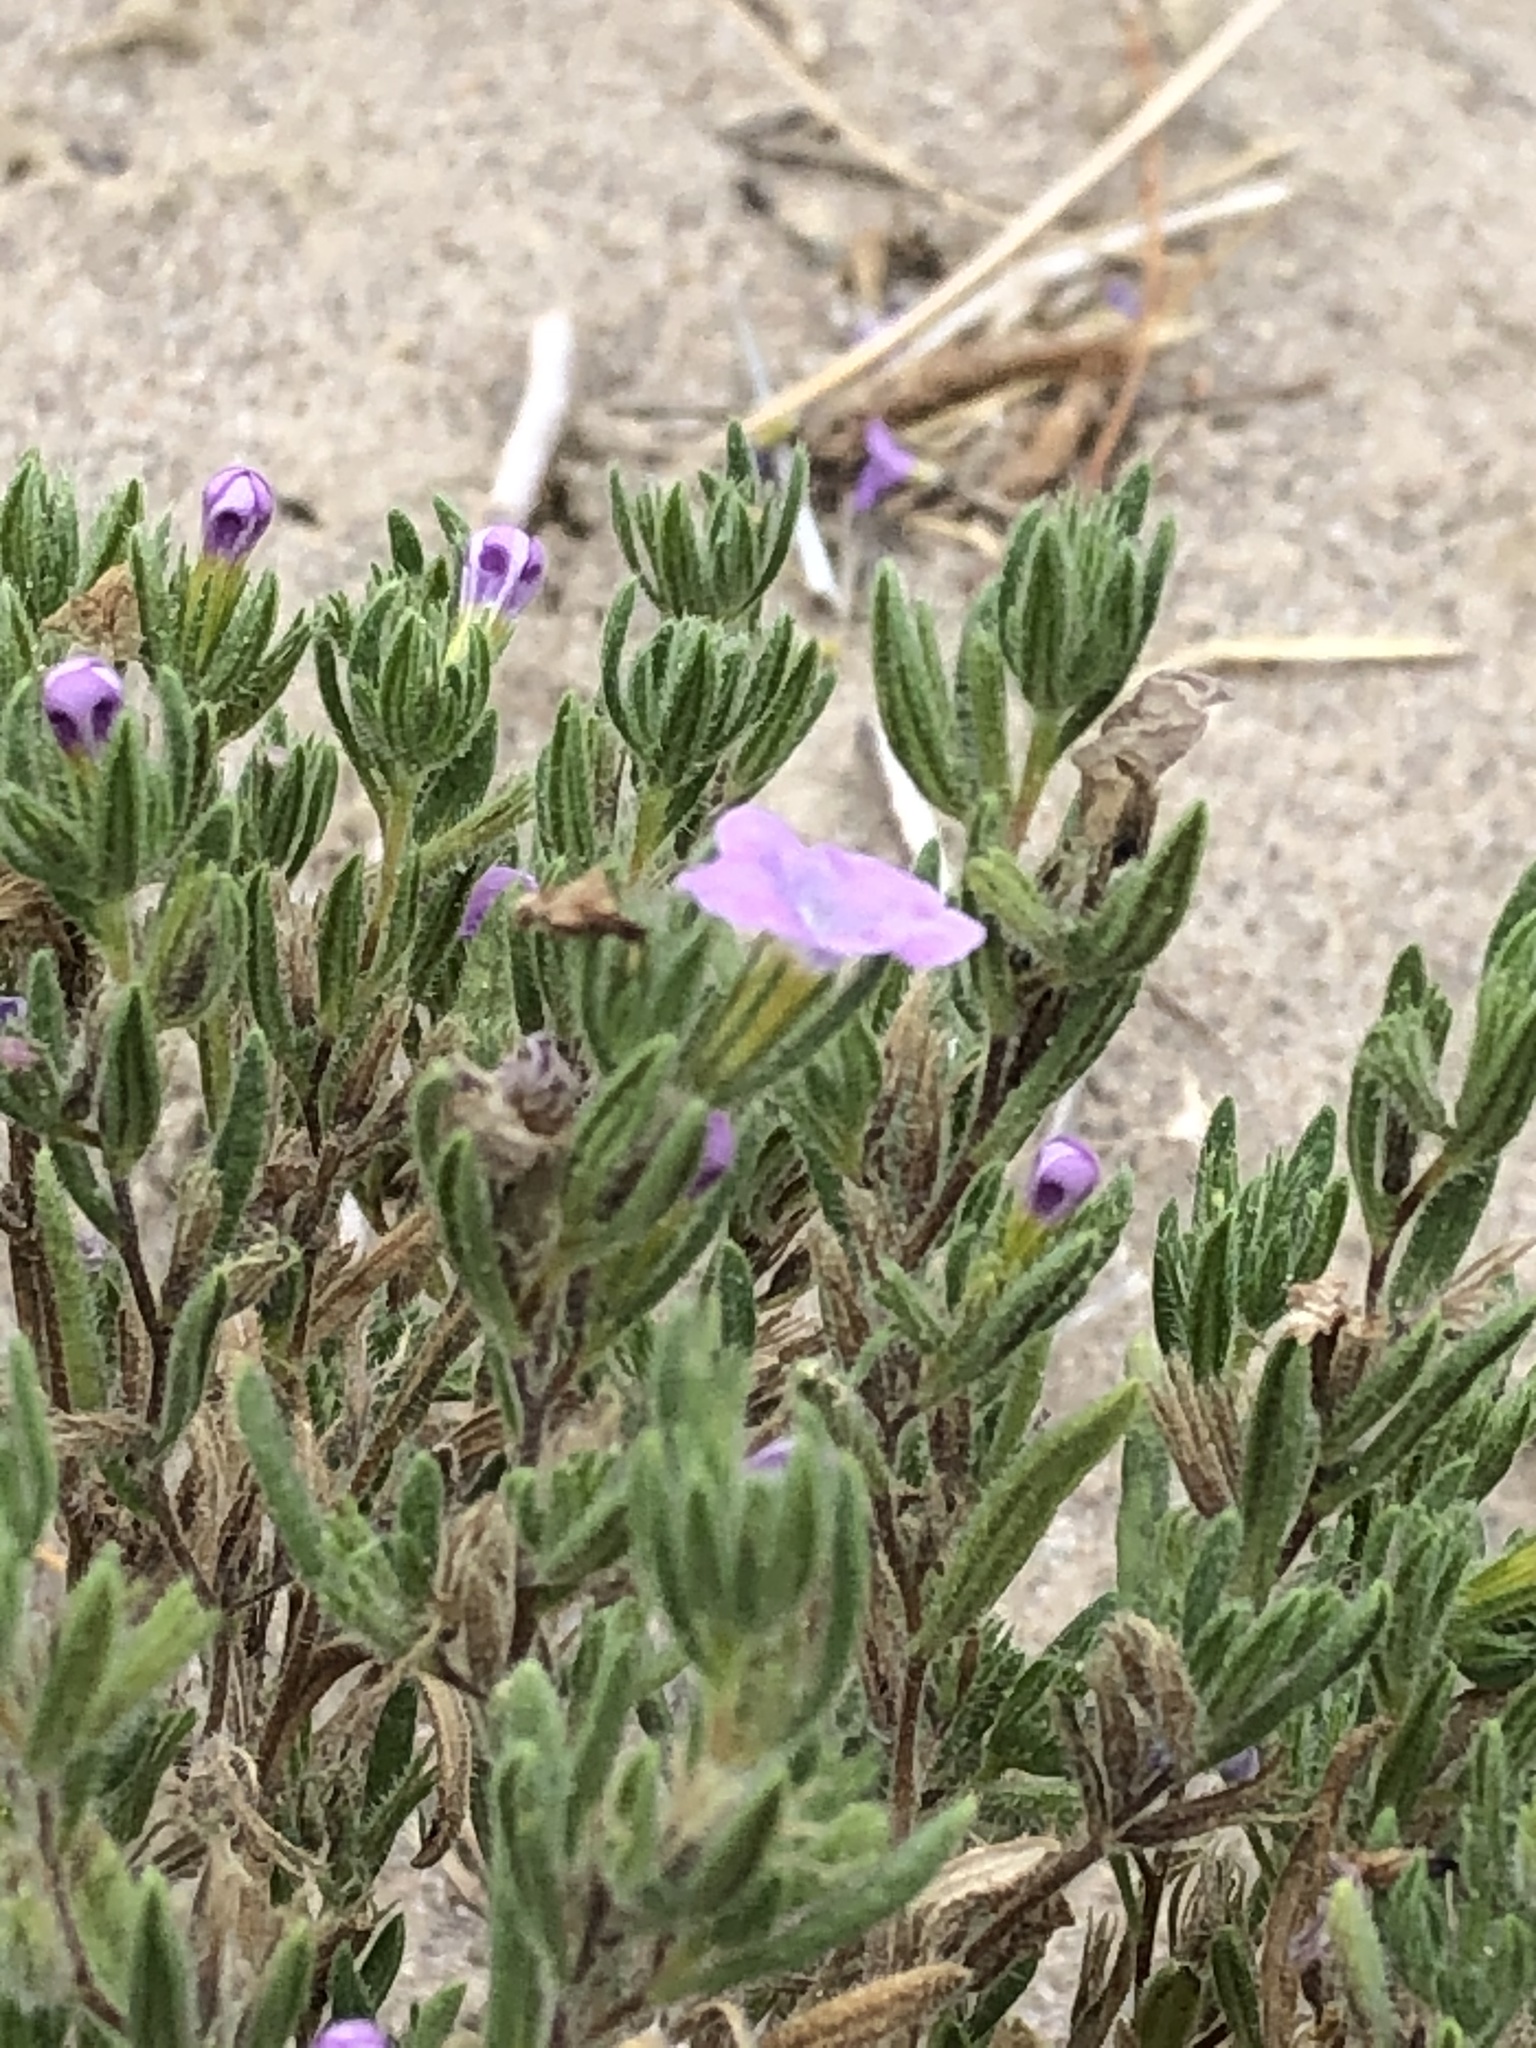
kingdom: Plantae
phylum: Tracheophyta
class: Magnoliopsida
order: Boraginales
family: Namaceae
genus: Nama
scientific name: Nama hispida
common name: Bristly nama
